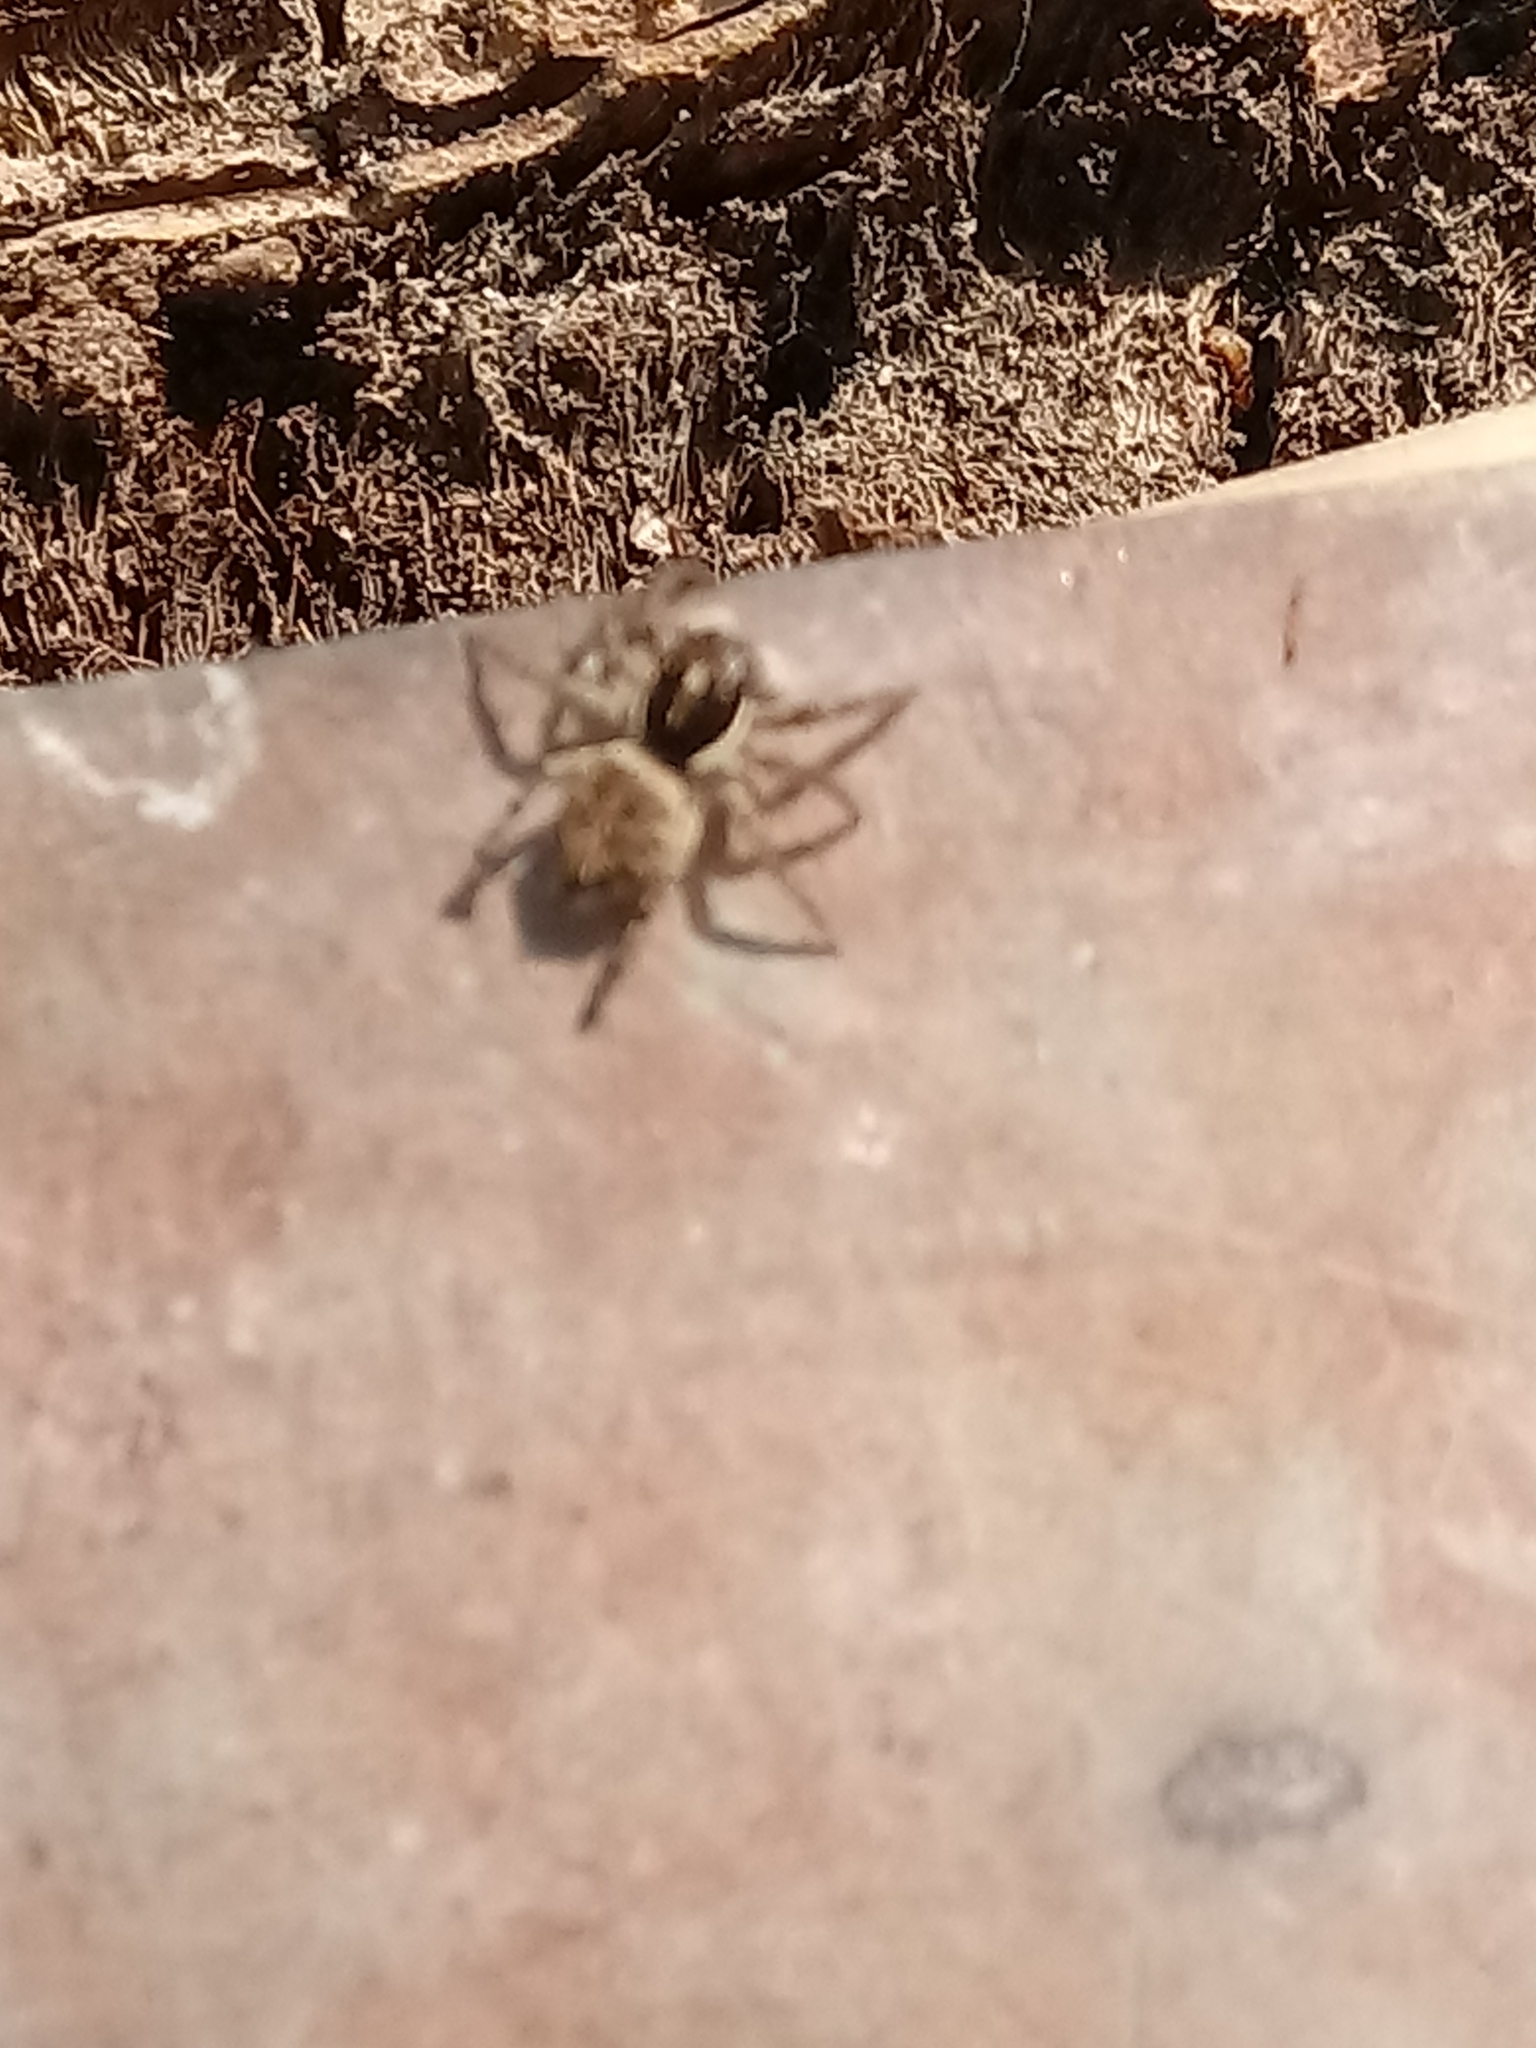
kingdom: Animalia
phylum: Arthropoda
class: Arachnida
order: Araneae
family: Salticidae
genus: Menemerus
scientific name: Menemerus semilimbatus
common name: Jumping spider
